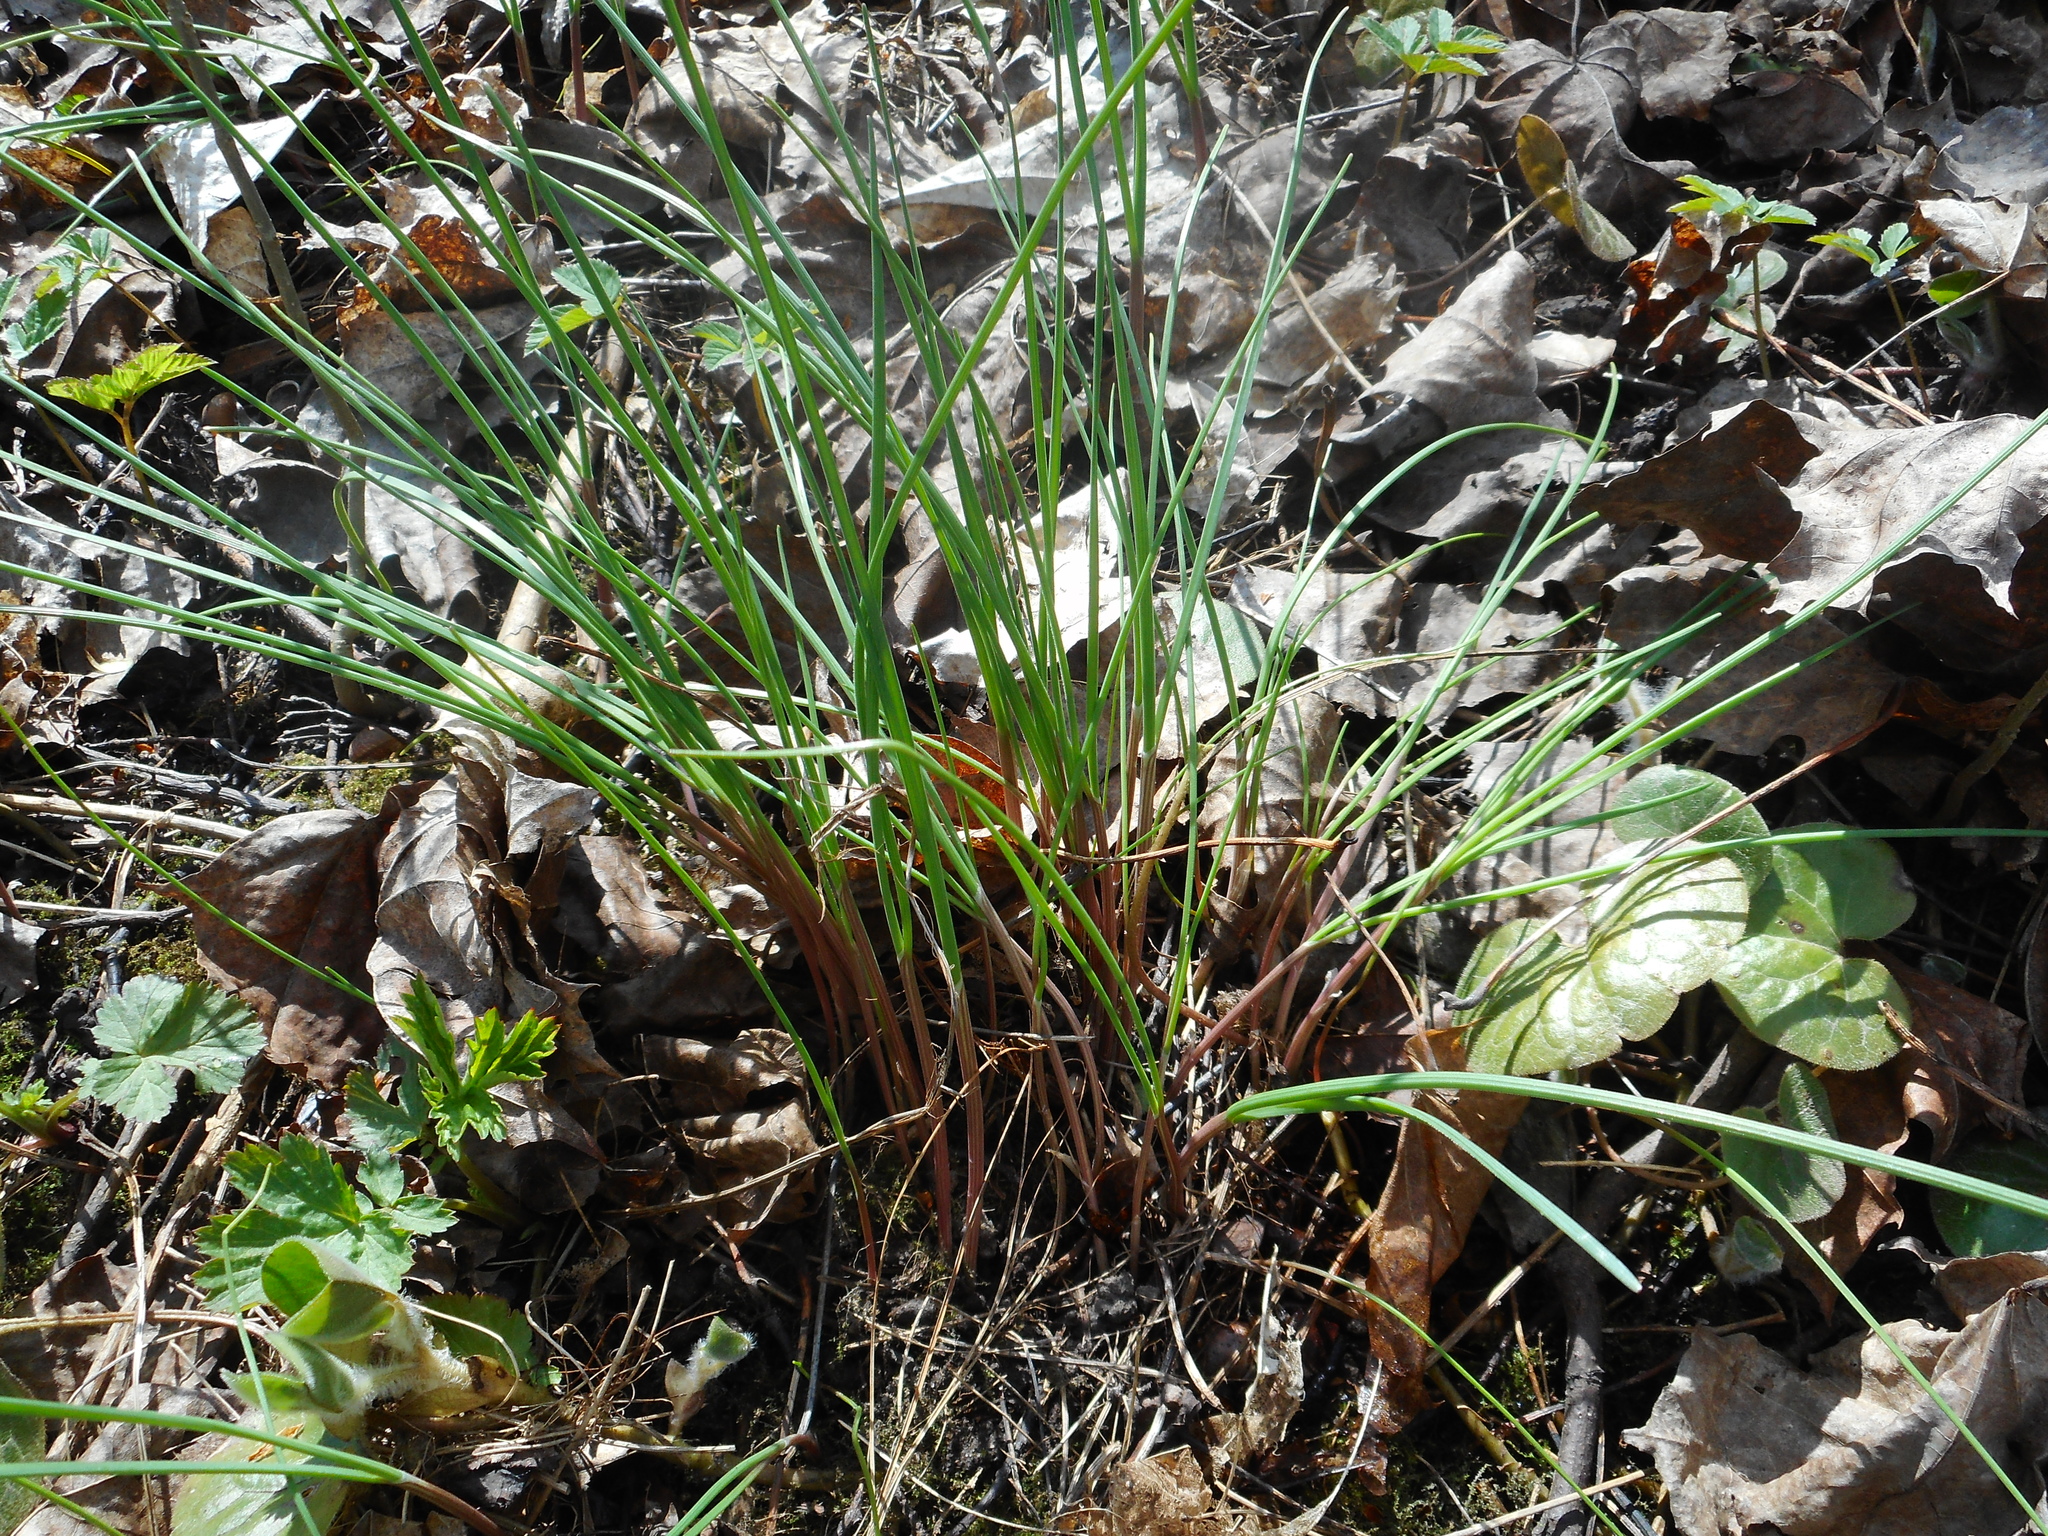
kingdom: Plantae
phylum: Tracheophyta
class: Liliopsida
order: Asparagales
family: Amaryllidaceae
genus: Allium
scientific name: Allium oleraceum
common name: Field garlic
